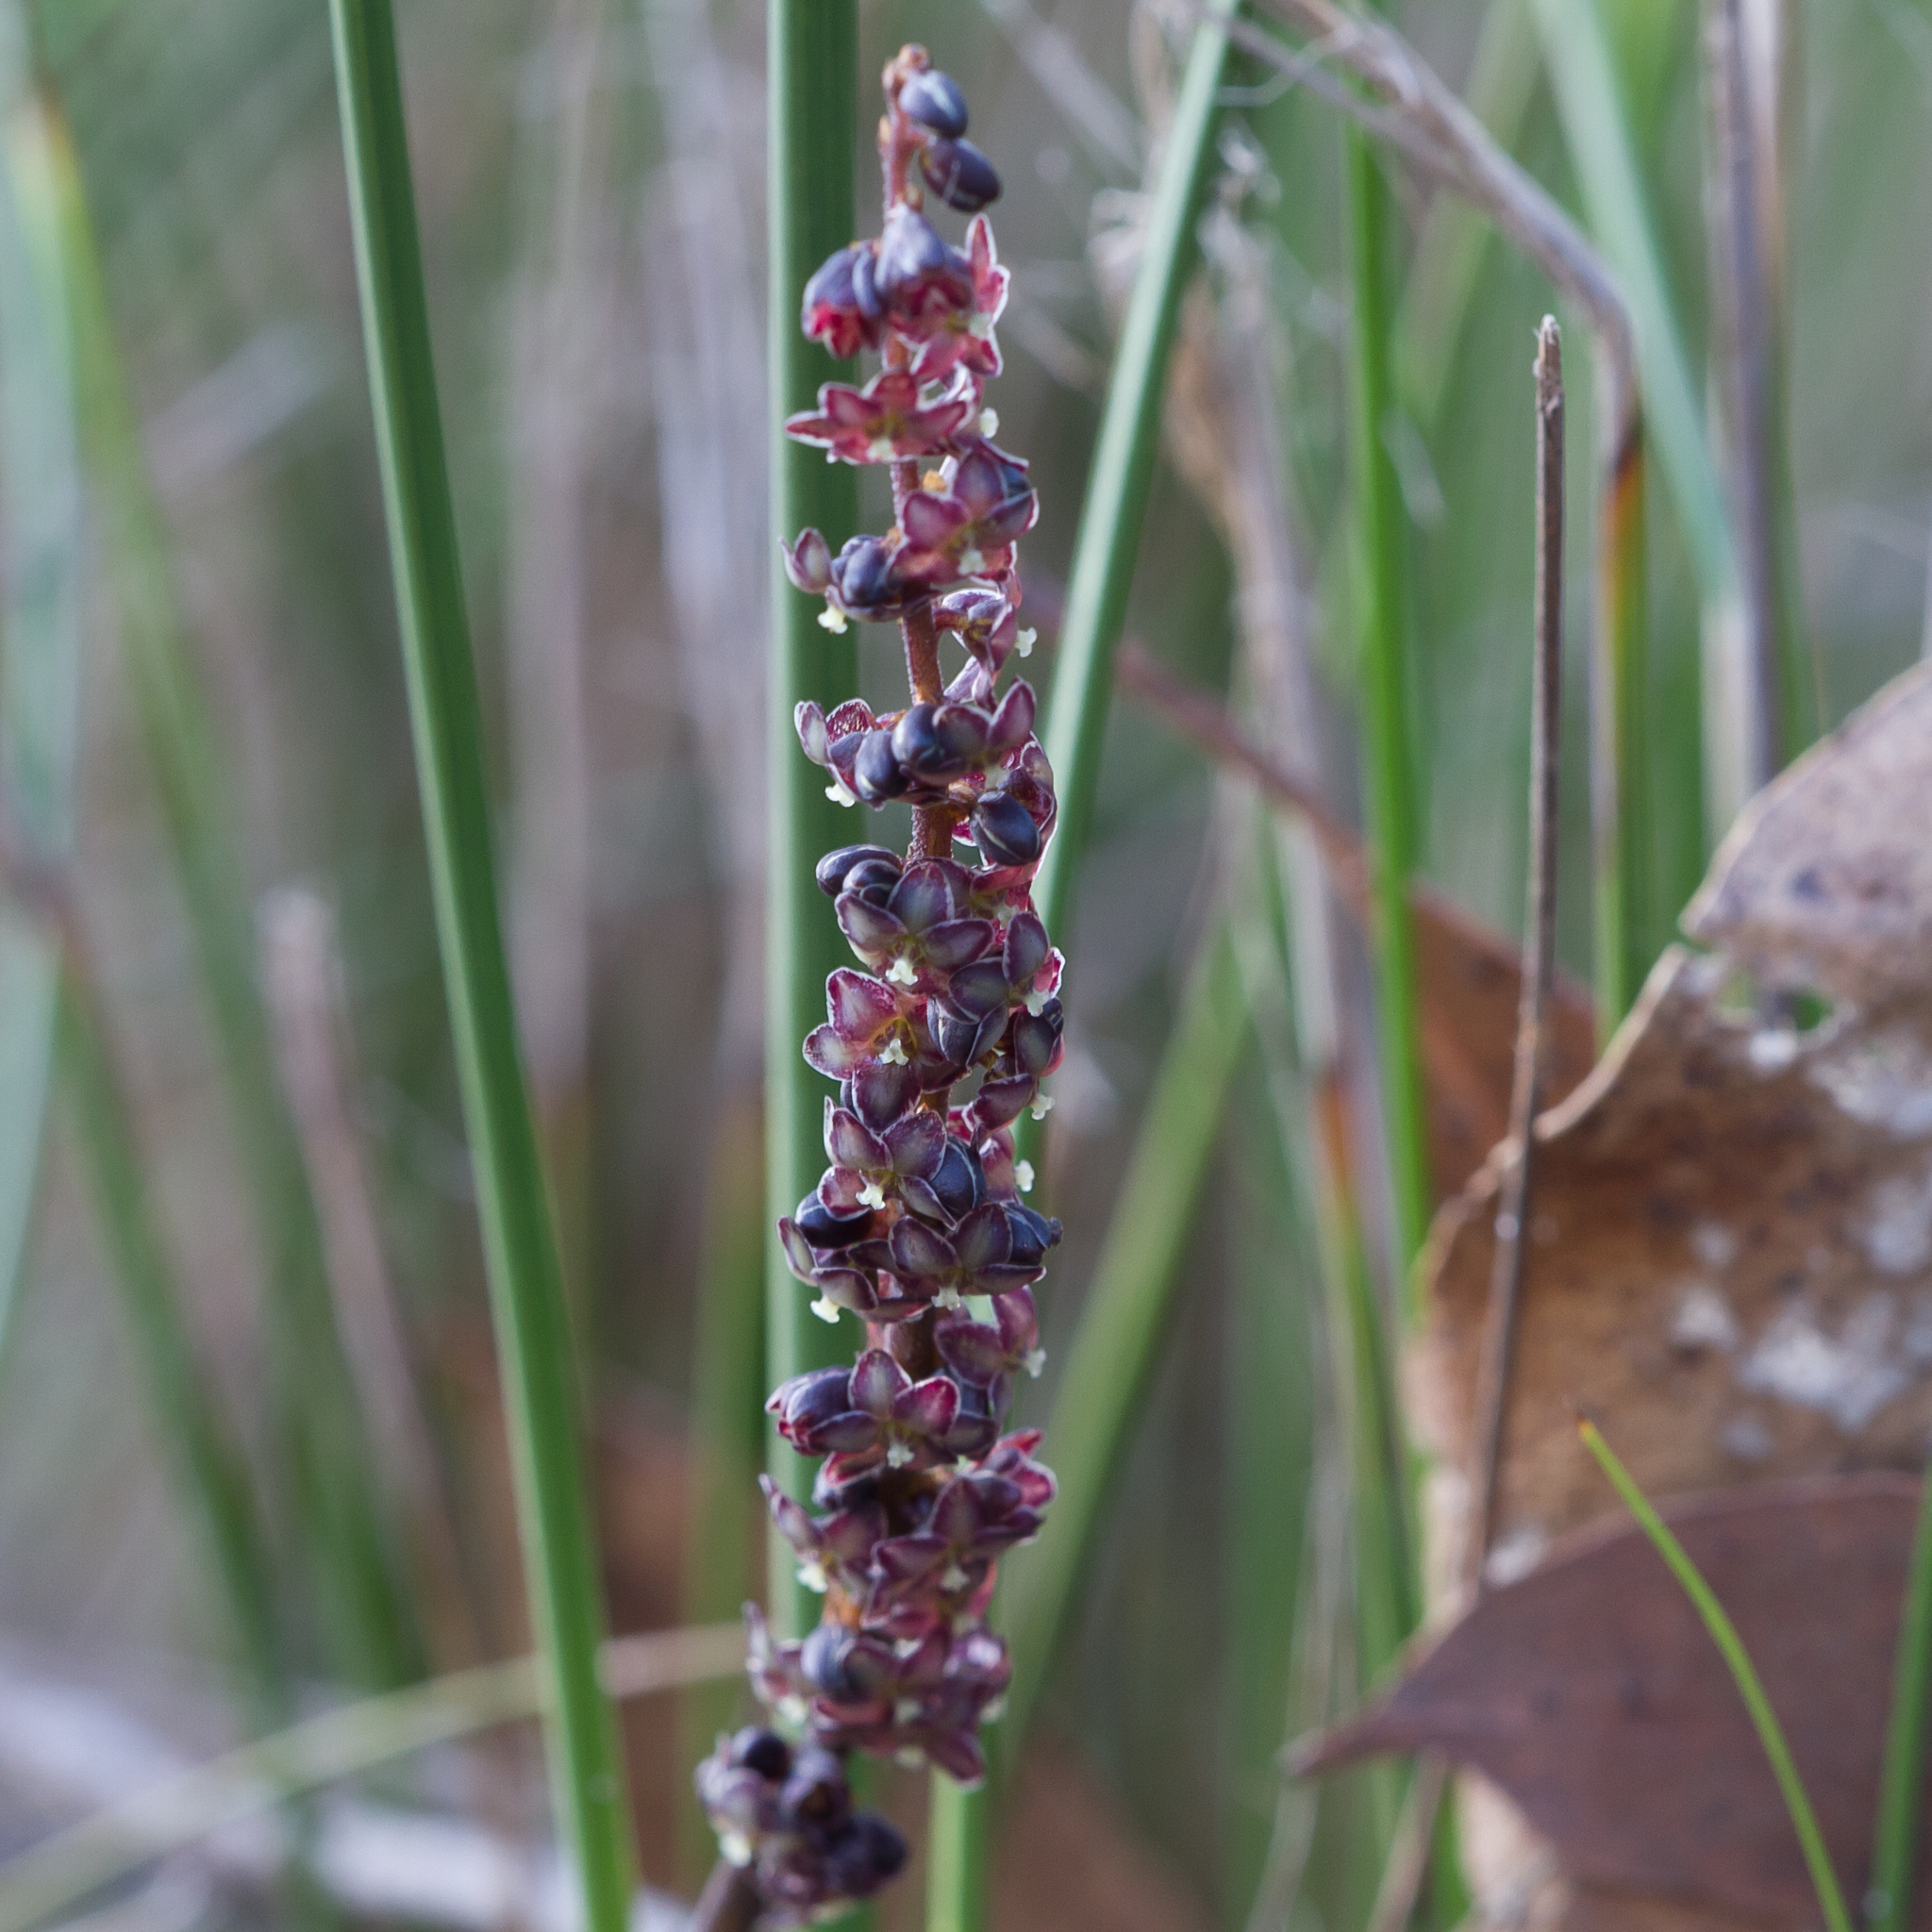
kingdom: Plantae
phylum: Tracheophyta
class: Liliopsida
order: Asparagales
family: Asparagaceae
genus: Lomandra
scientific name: Lomandra micrantha
